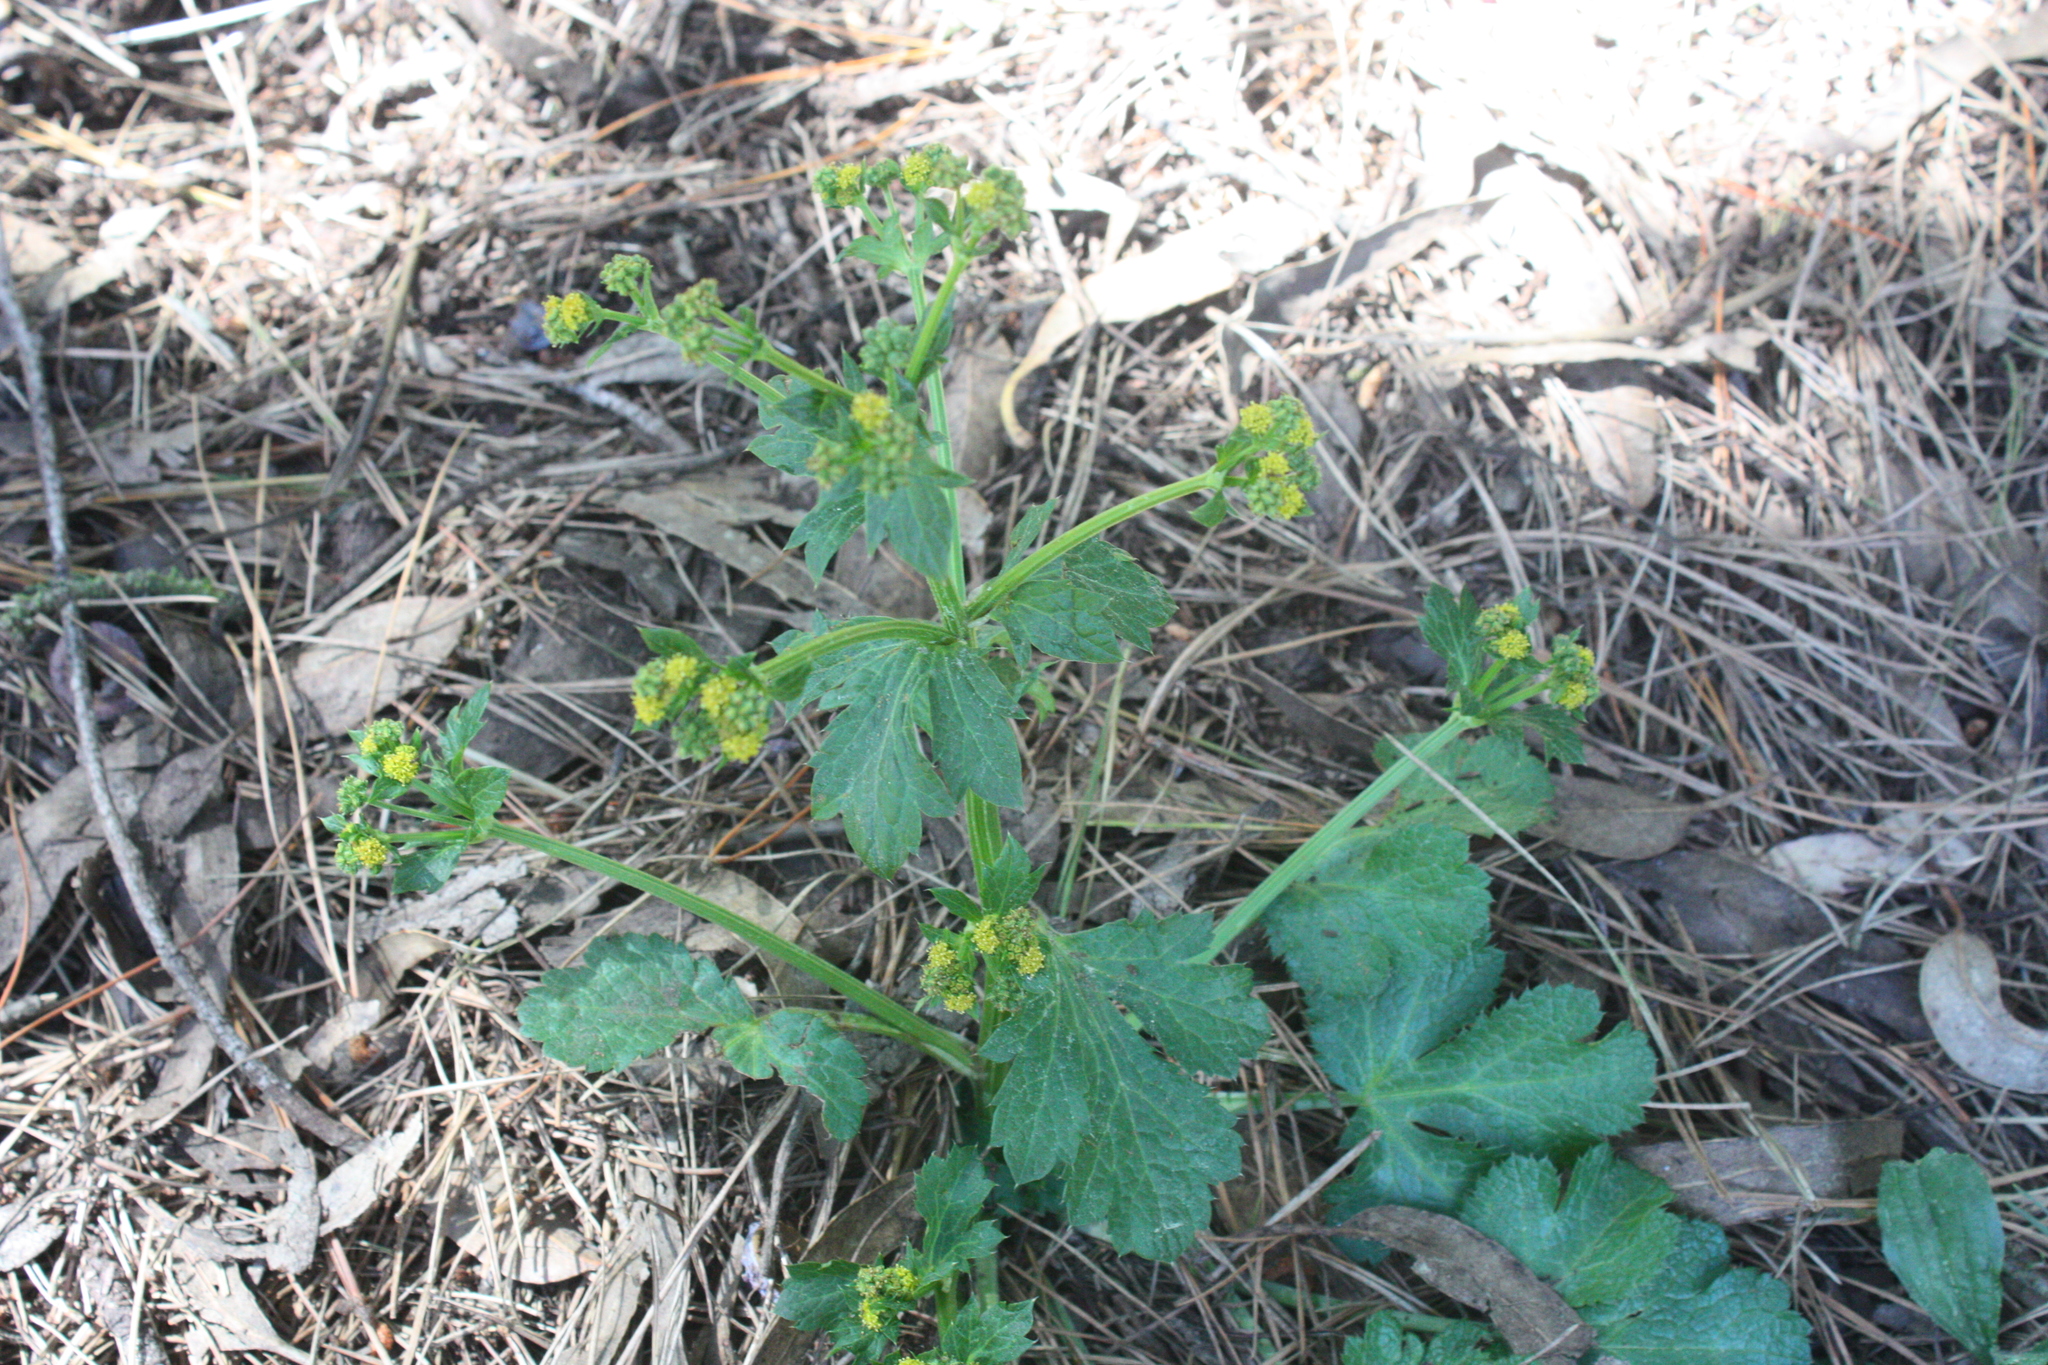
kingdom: Plantae
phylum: Tracheophyta
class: Magnoliopsida
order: Apiales
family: Apiaceae
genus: Sanicula
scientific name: Sanicula crassicaulis
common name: Western snakeroot
